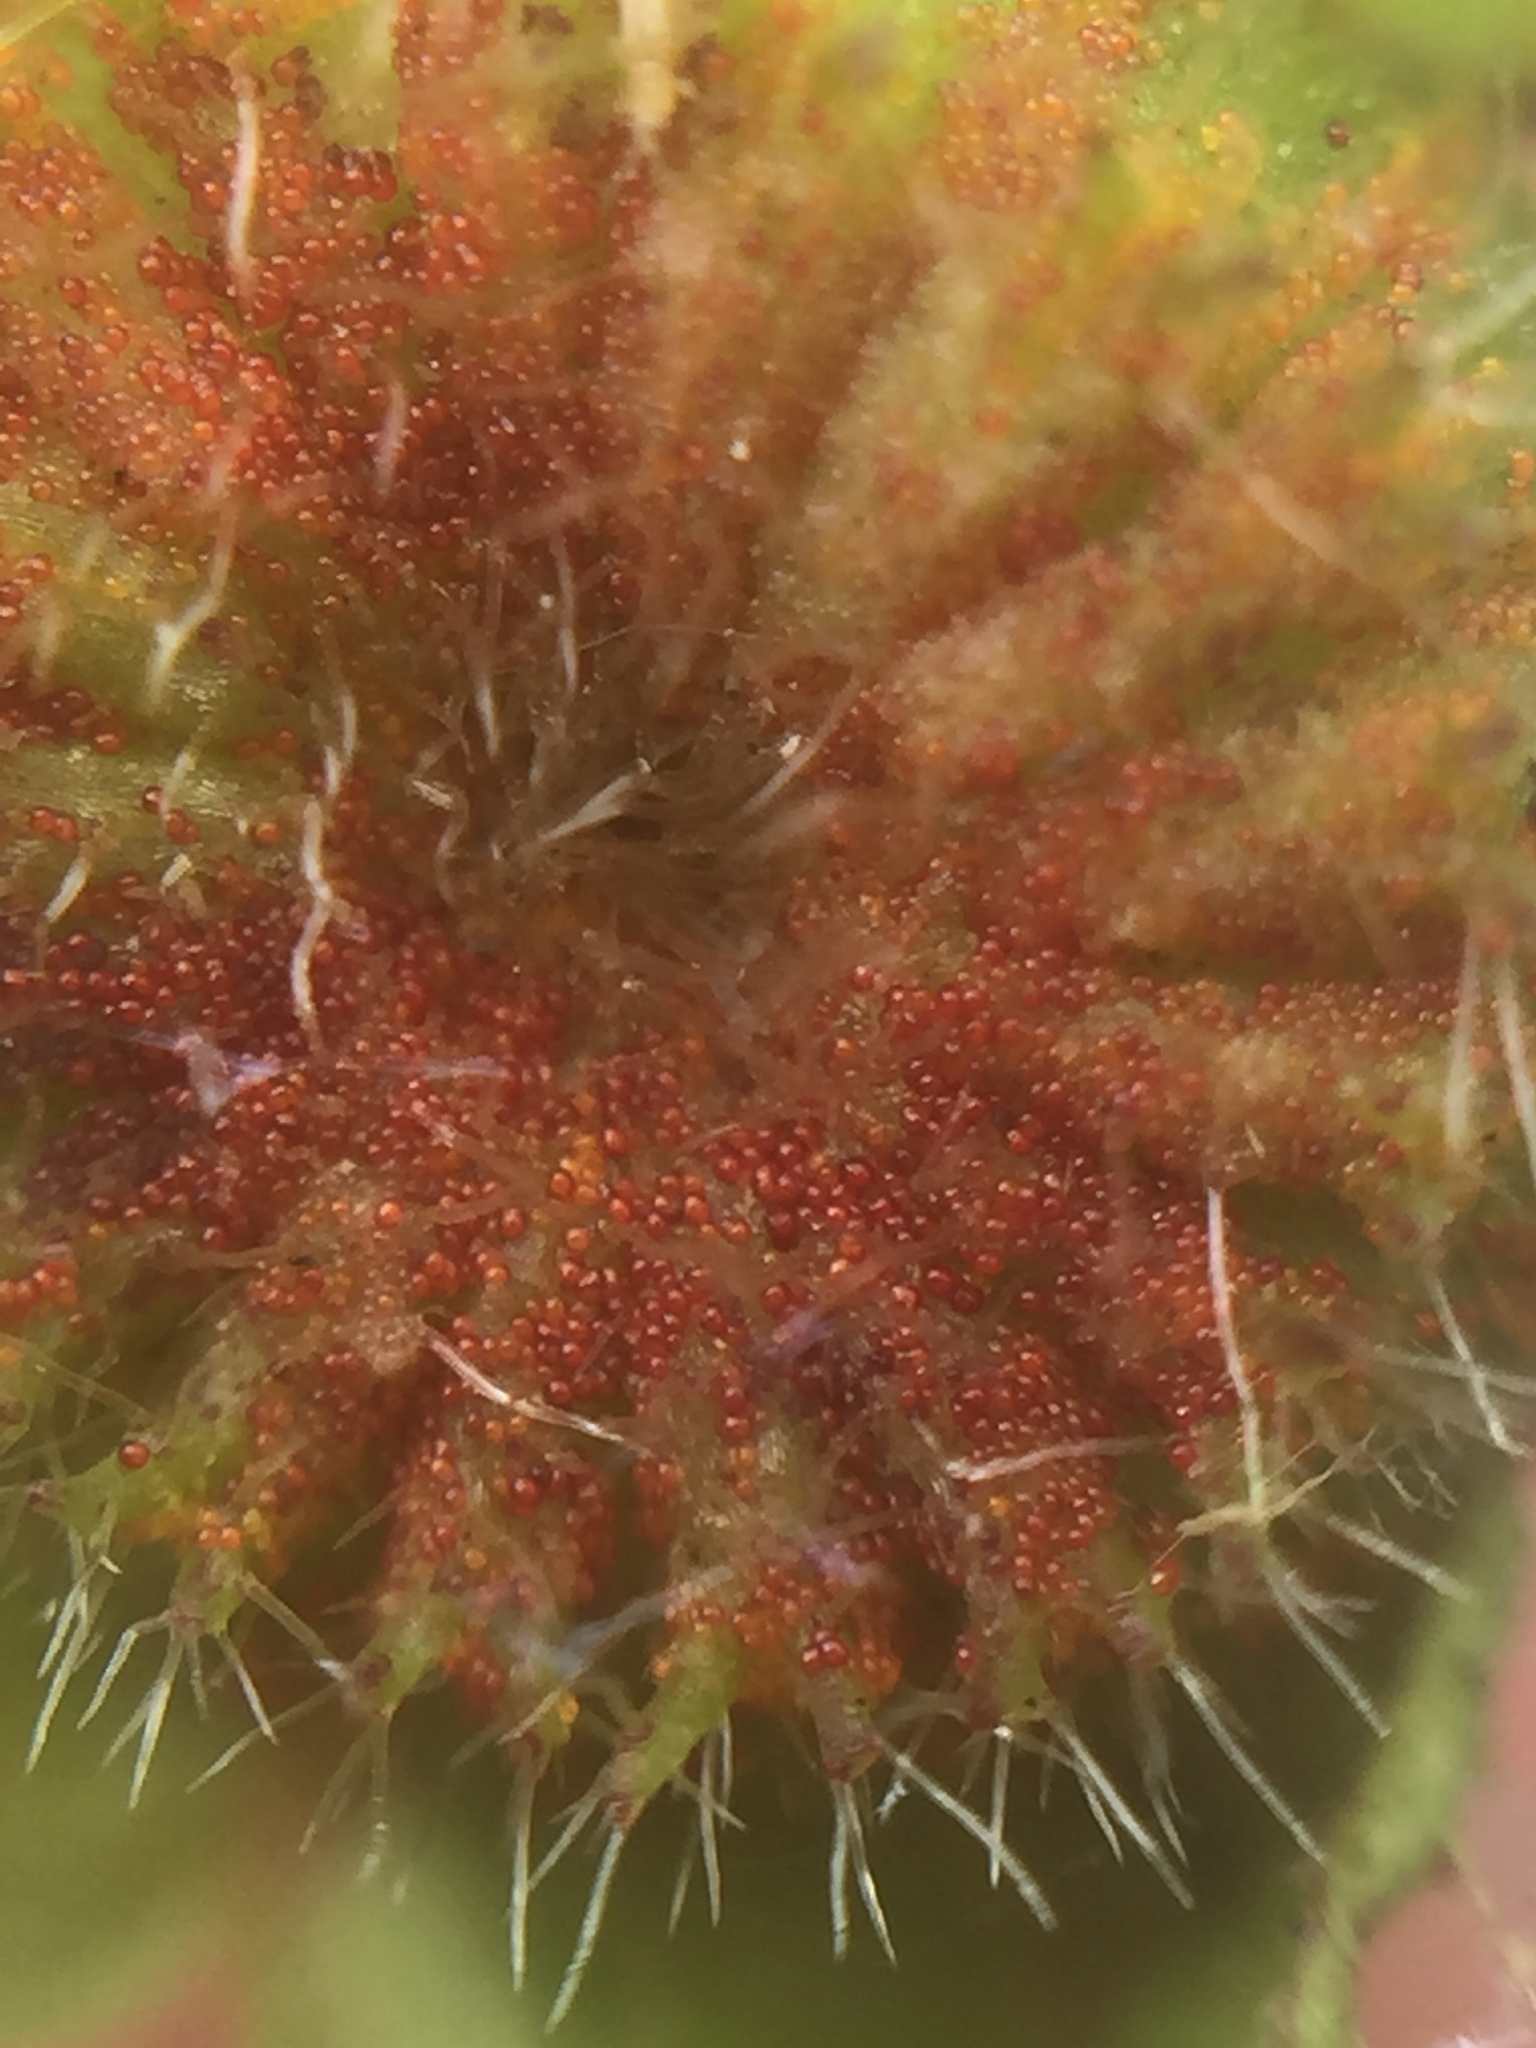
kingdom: Fungi
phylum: Chytridiomycota
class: Chytridiomycetes
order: Chytridiales
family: Synchytriaceae
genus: Synchytrium
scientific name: Synchytrium australe
